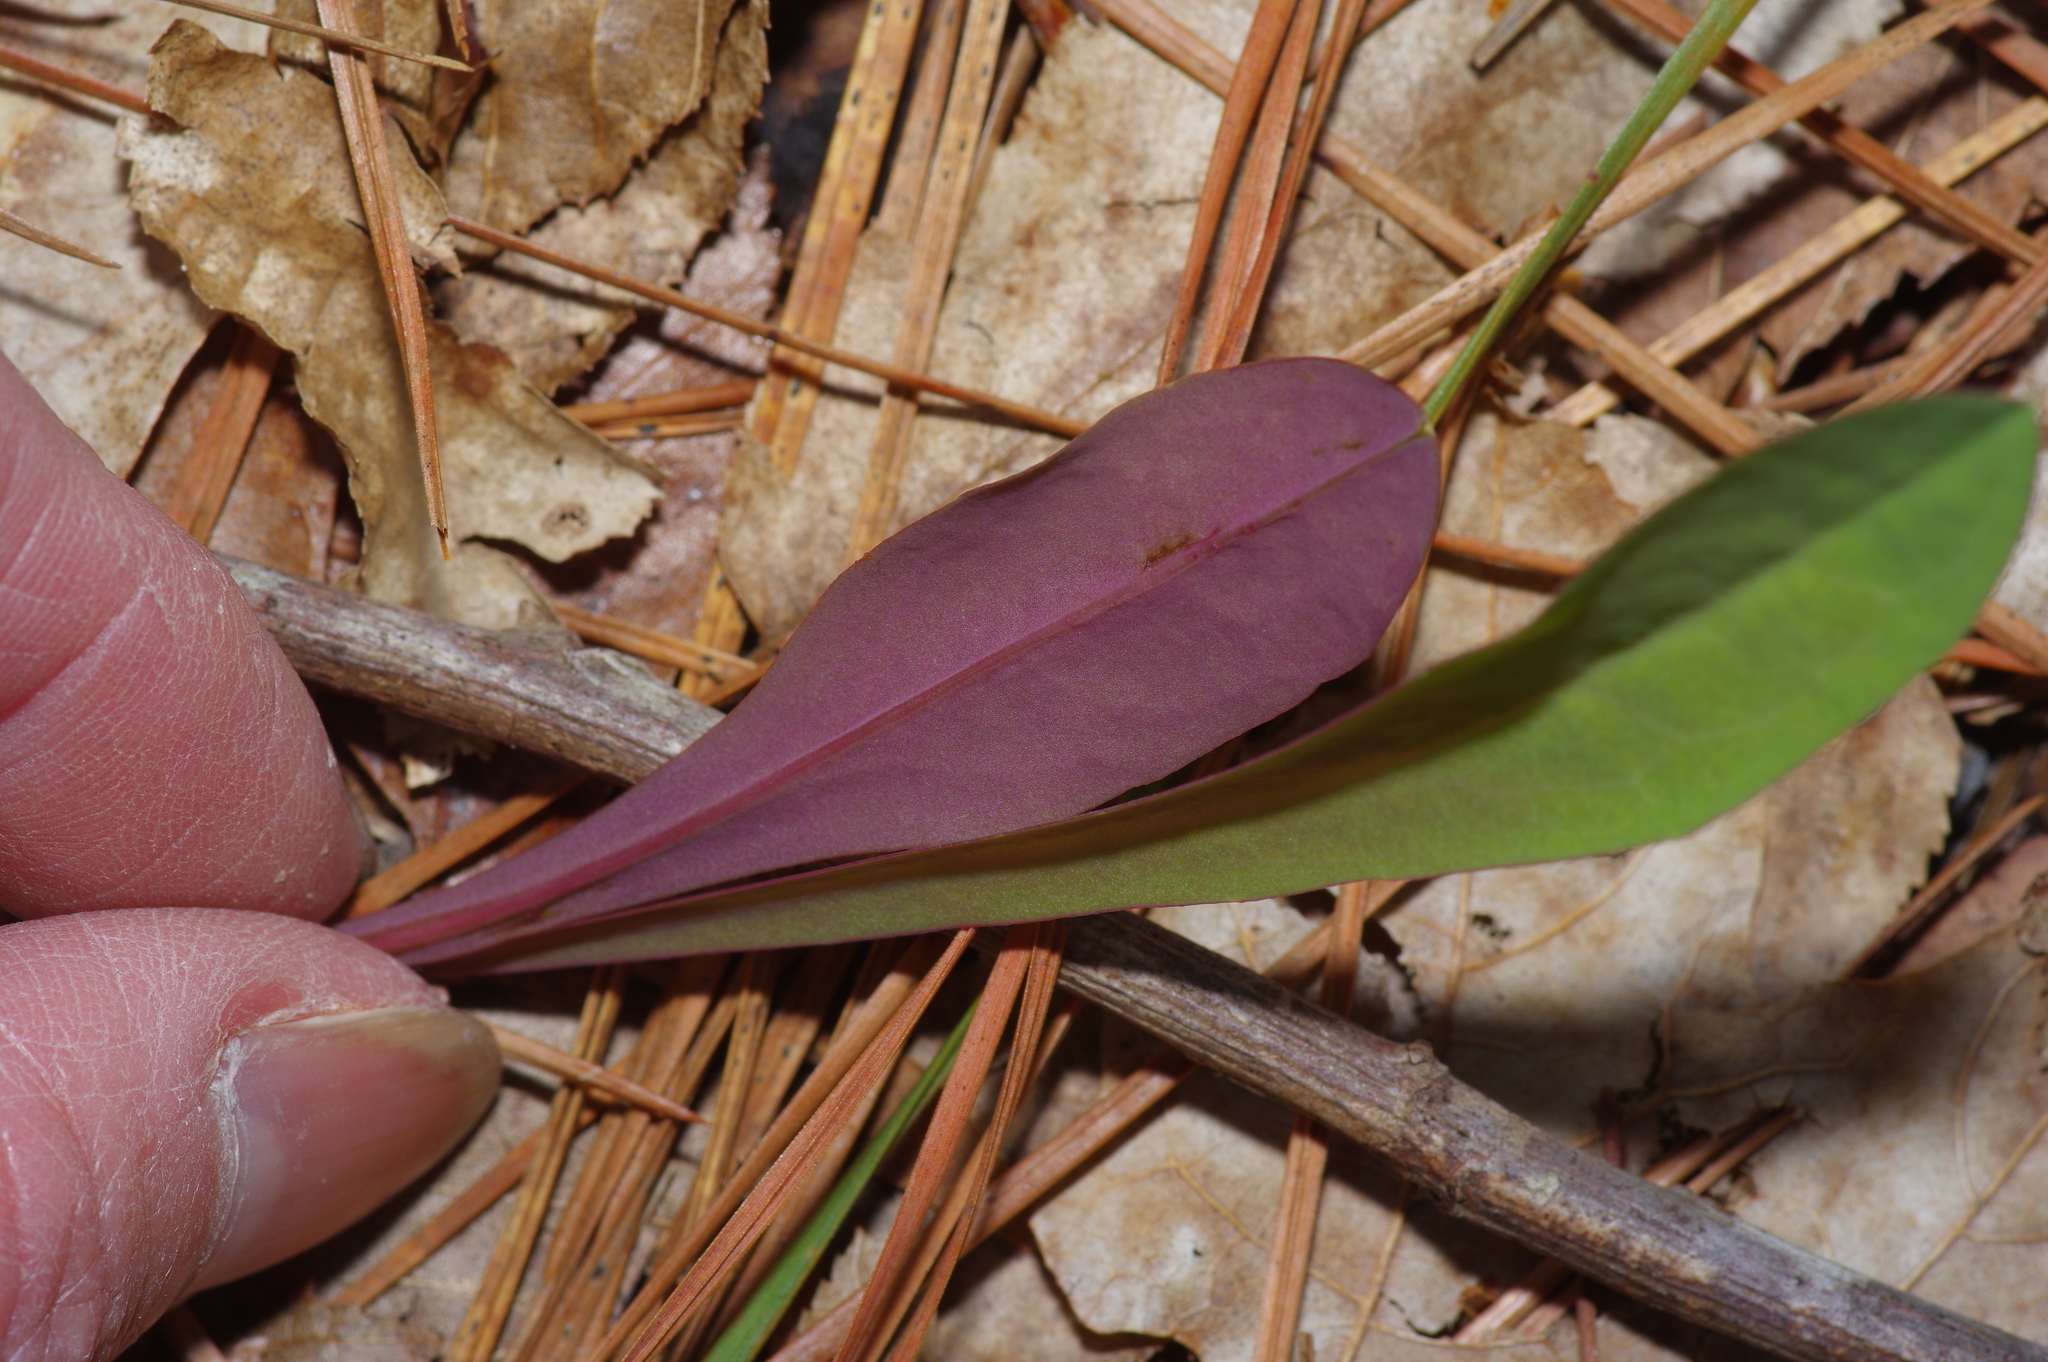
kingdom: Plantae
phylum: Tracheophyta
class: Magnoliopsida
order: Asterales
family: Asteraceae
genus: Krigia
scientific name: Krigia dandelion
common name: Colonial dwarf-dandelion
